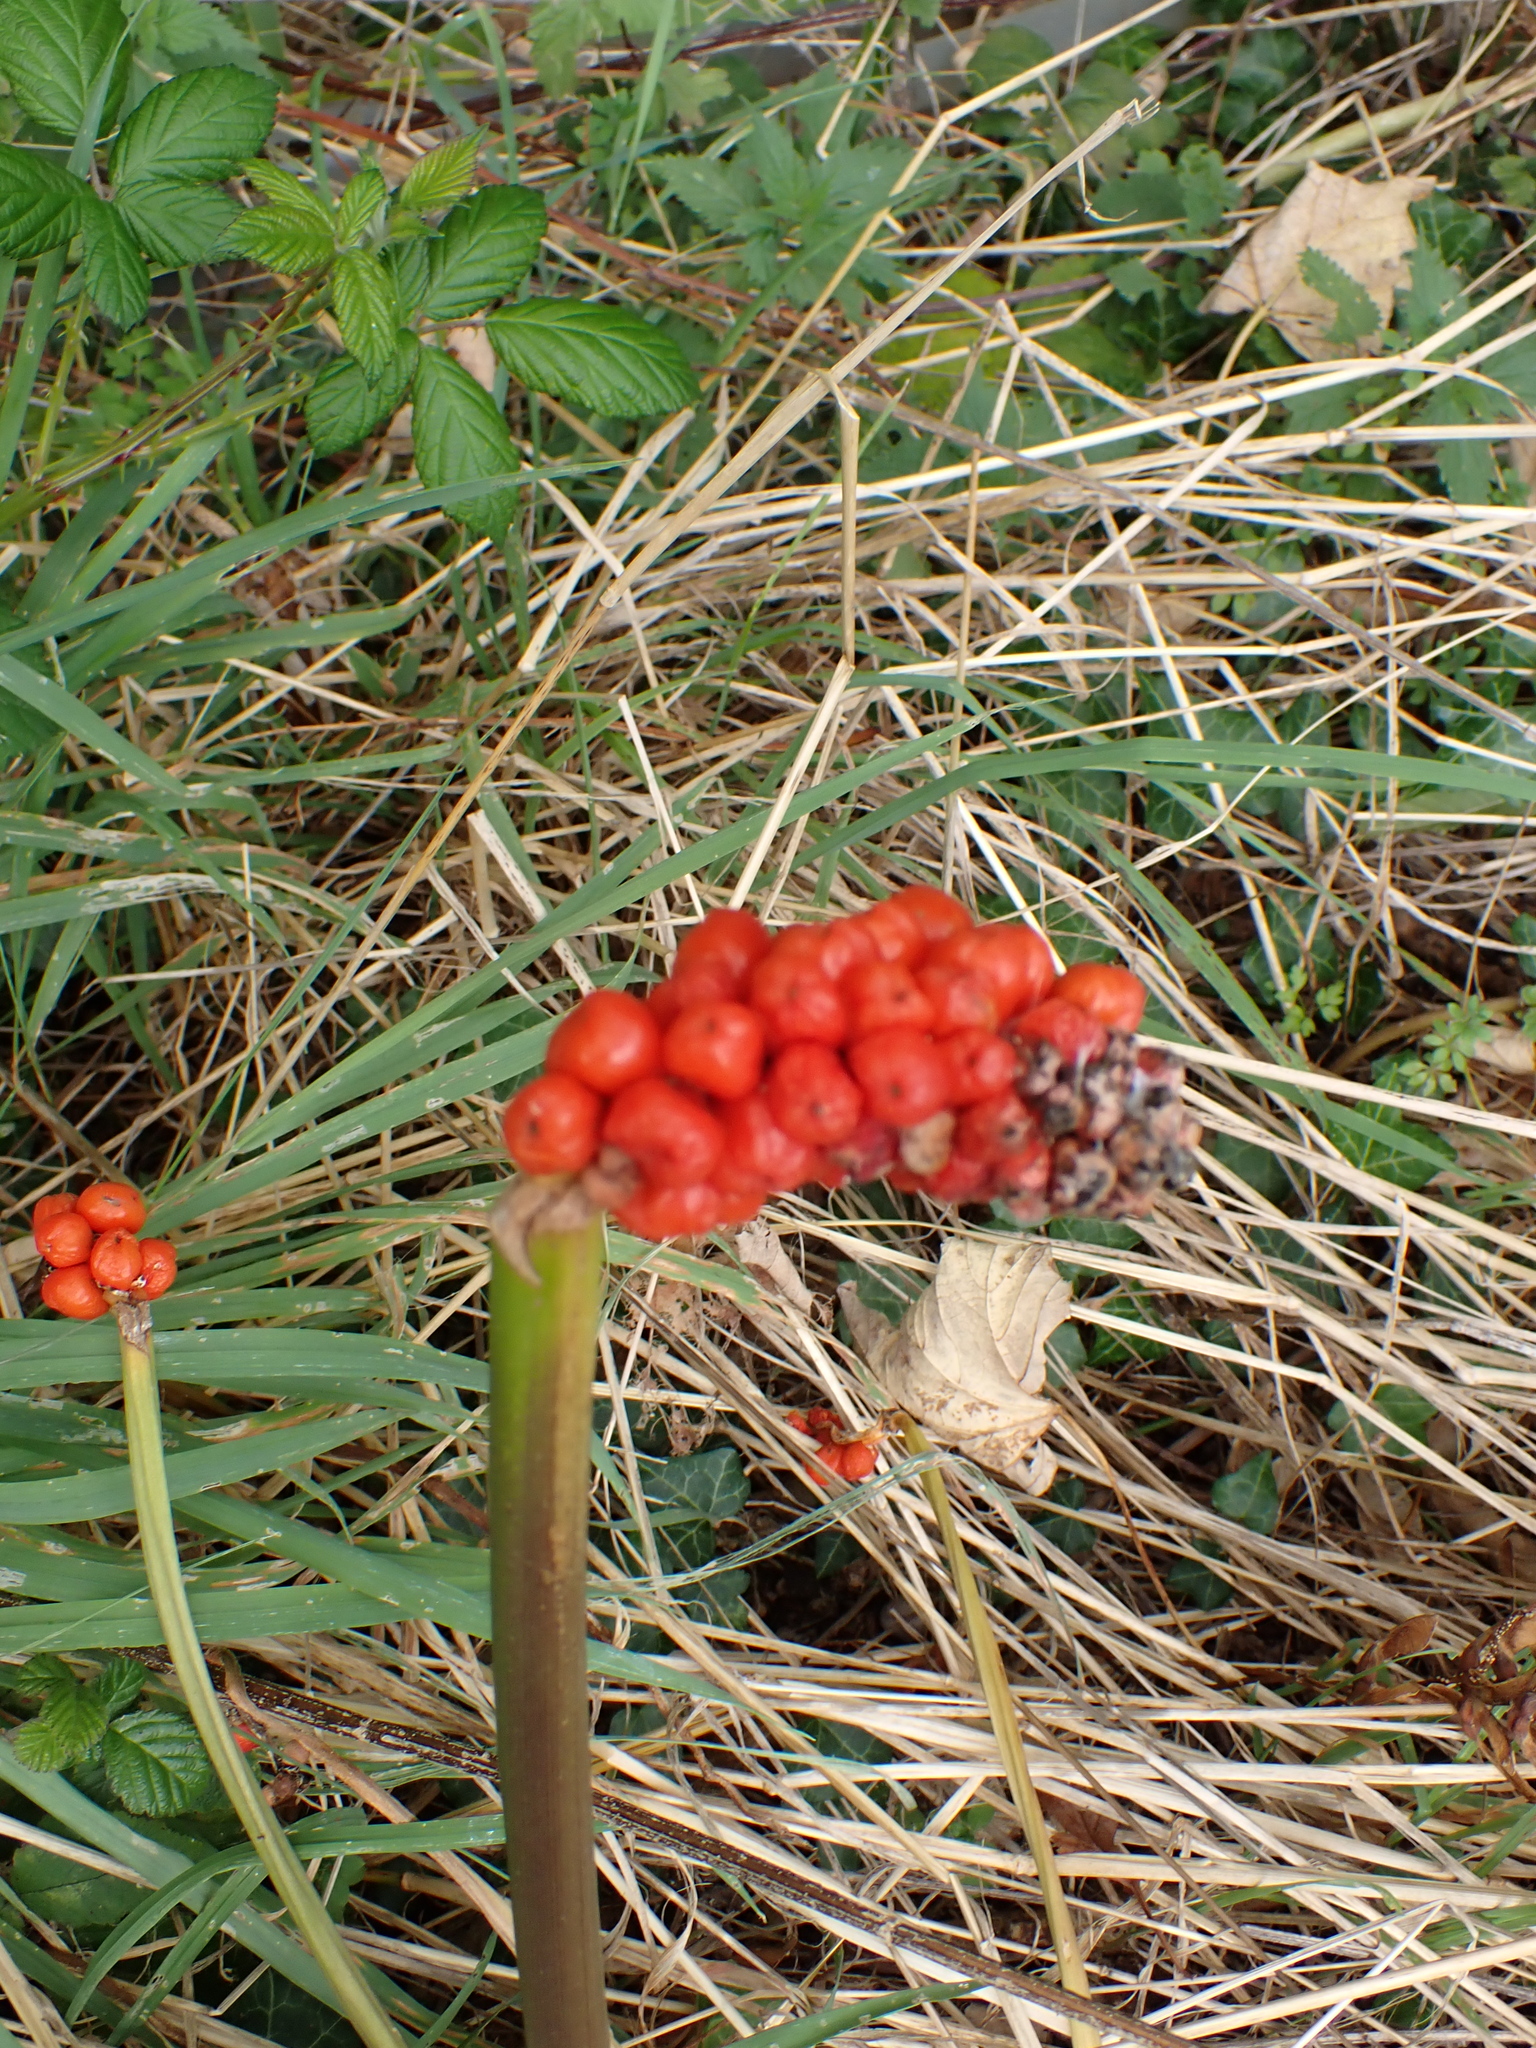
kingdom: Plantae
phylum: Tracheophyta
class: Liliopsida
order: Alismatales
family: Araceae
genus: Arum
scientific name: Arum maculatum
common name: Lords-and-ladies
